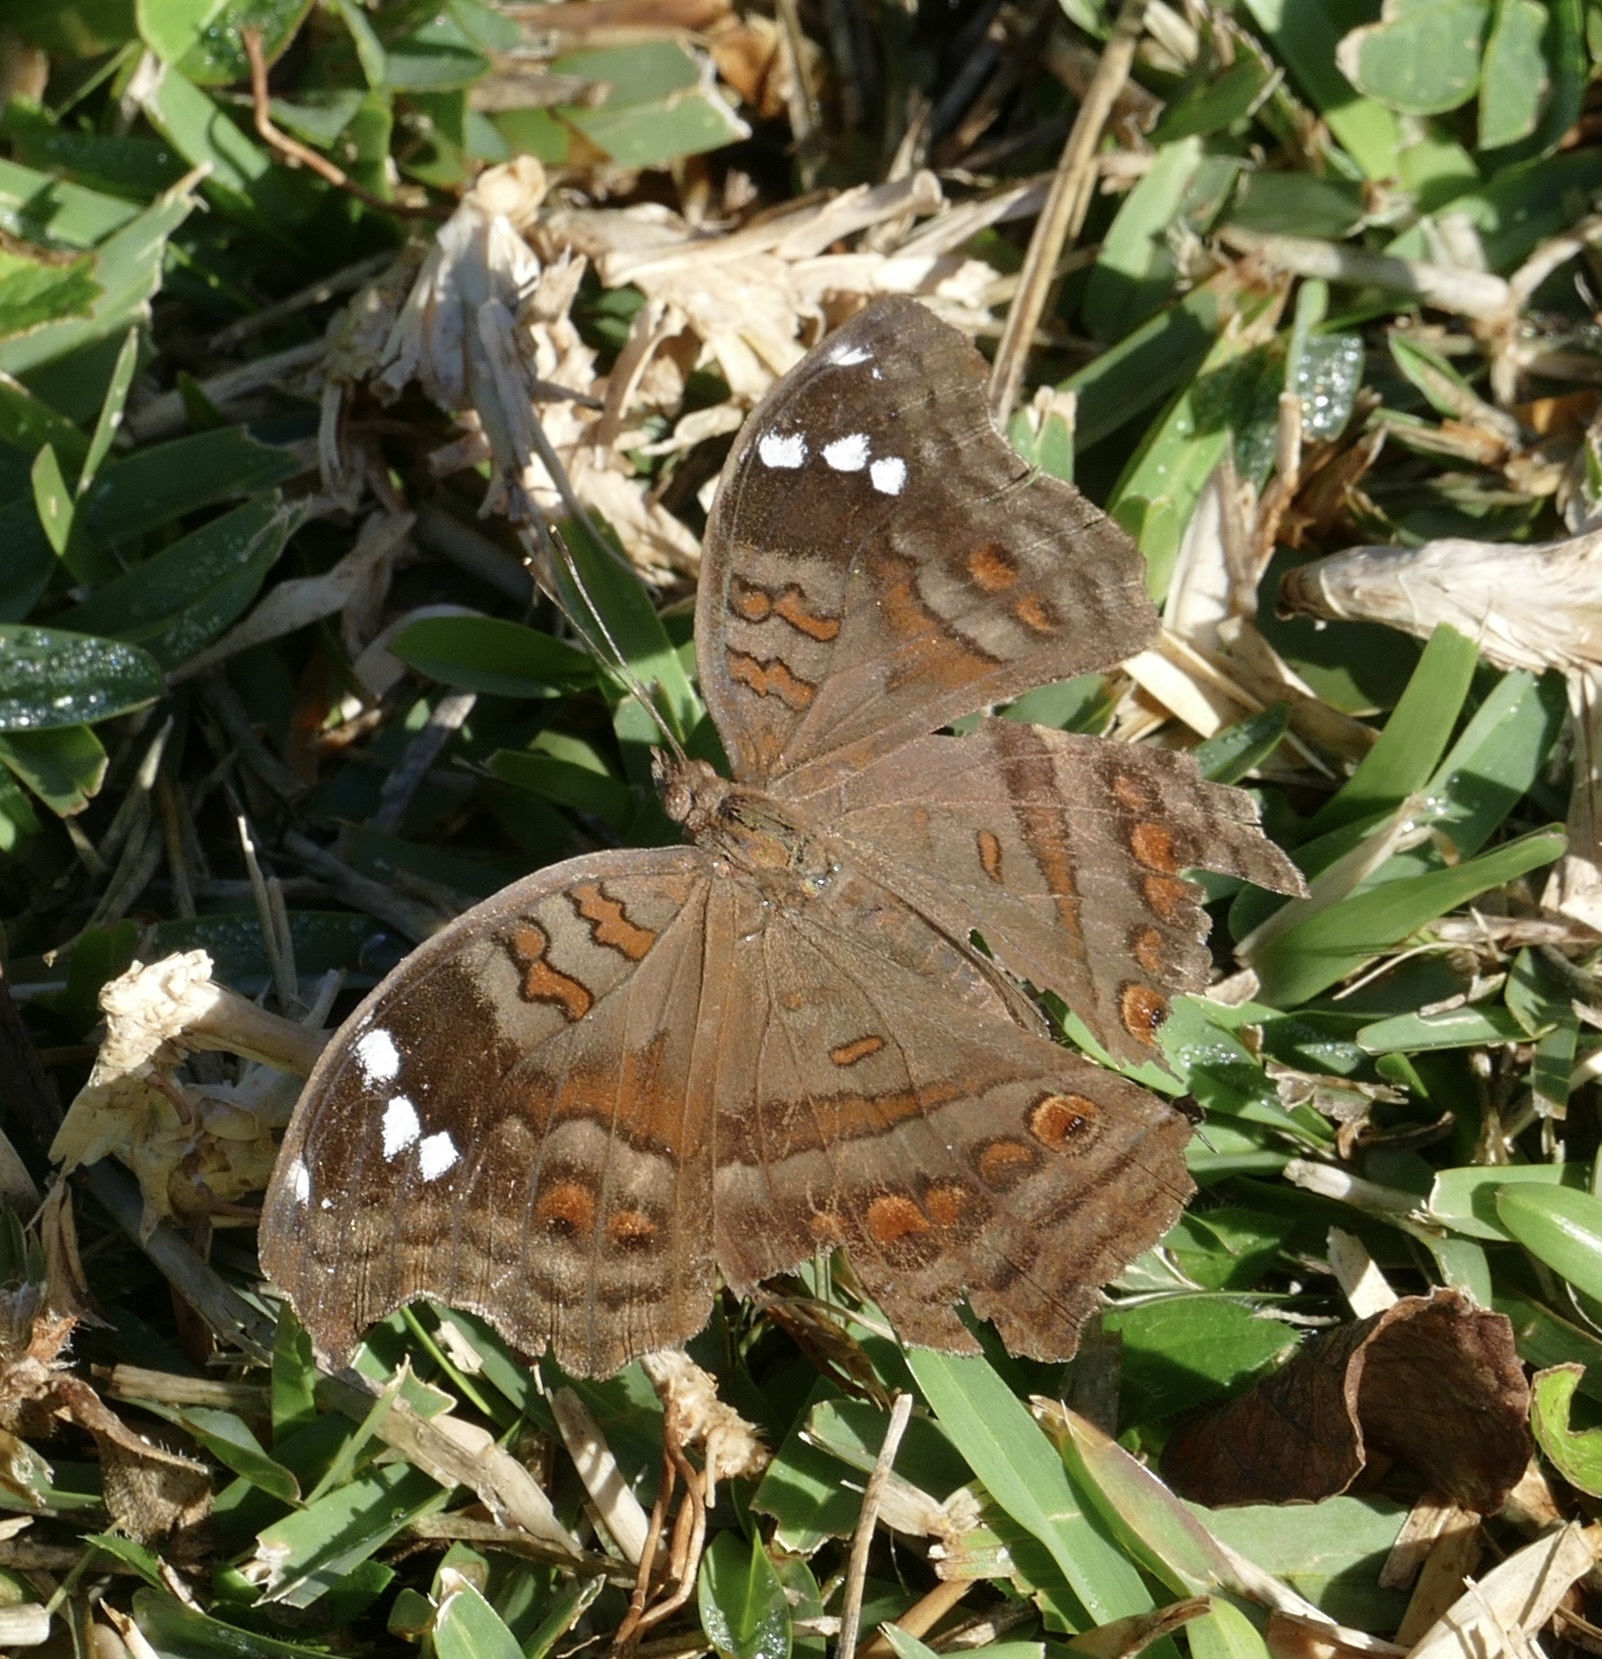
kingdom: Animalia
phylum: Arthropoda
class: Insecta
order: Lepidoptera
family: Nymphalidae
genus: Junonia
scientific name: Junonia natalica
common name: Brown pansy
